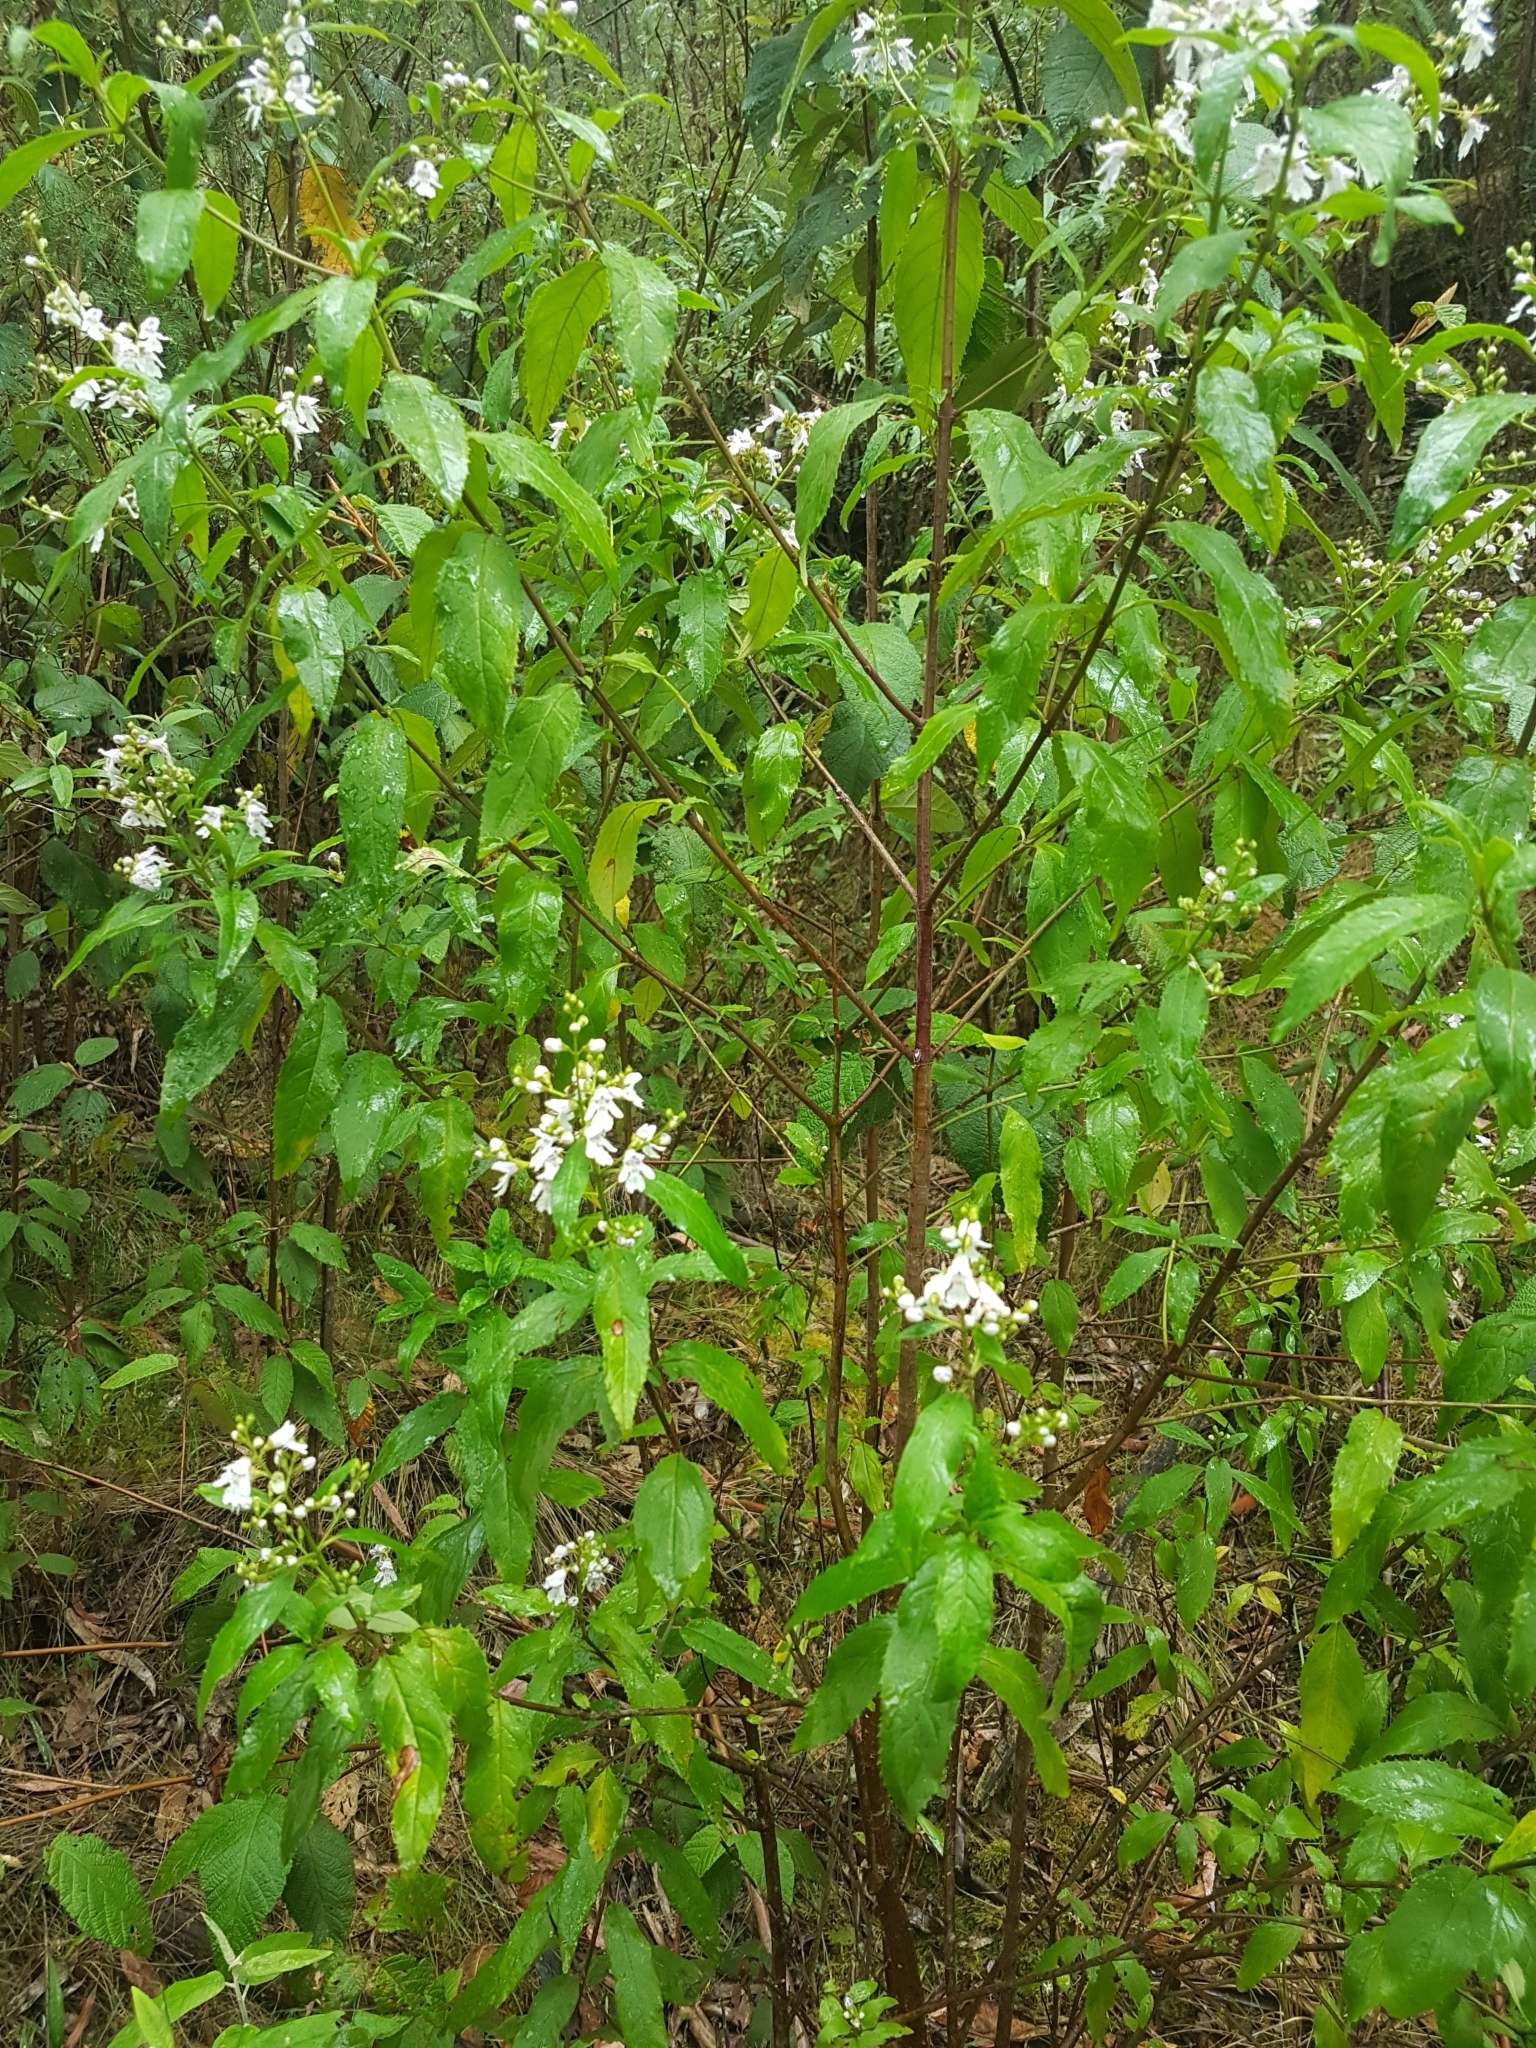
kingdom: Plantae
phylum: Tracheophyta
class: Magnoliopsida
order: Lamiales
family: Lamiaceae
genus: Prostanthera
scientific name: Prostanthera lasianthos
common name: Mountain-lilac
